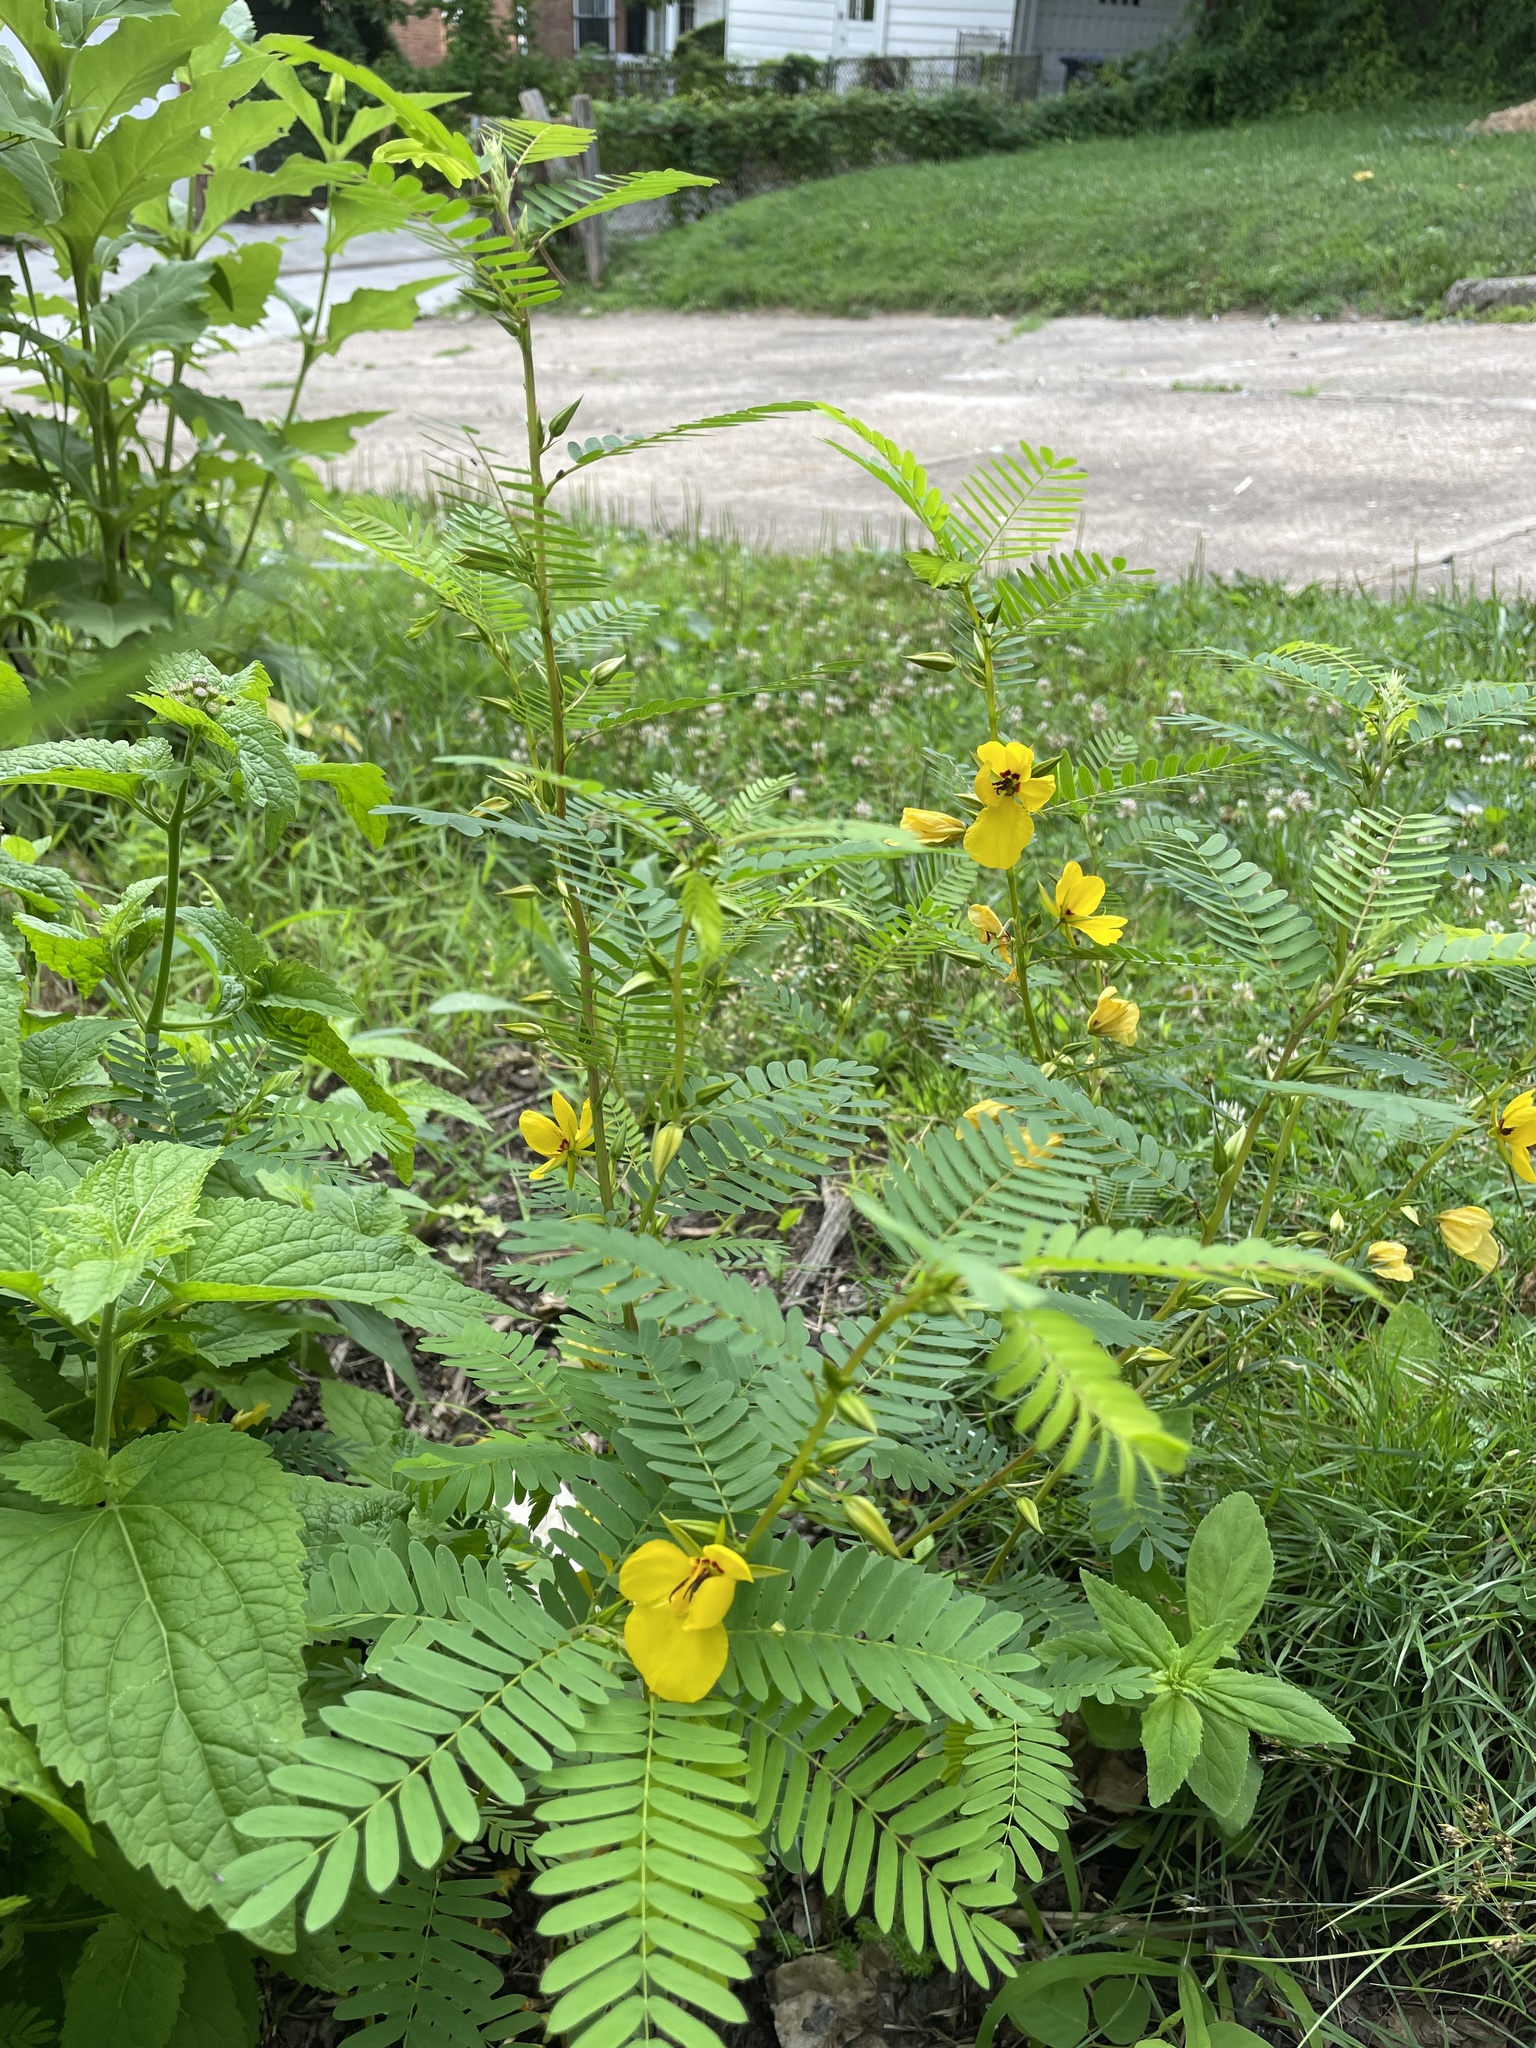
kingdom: Plantae
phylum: Tracheophyta
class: Magnoliopsida
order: Fabales
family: Fabaceae
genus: Chamaecrista
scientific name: Chamaecrista fasciculata
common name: Golden cassia
